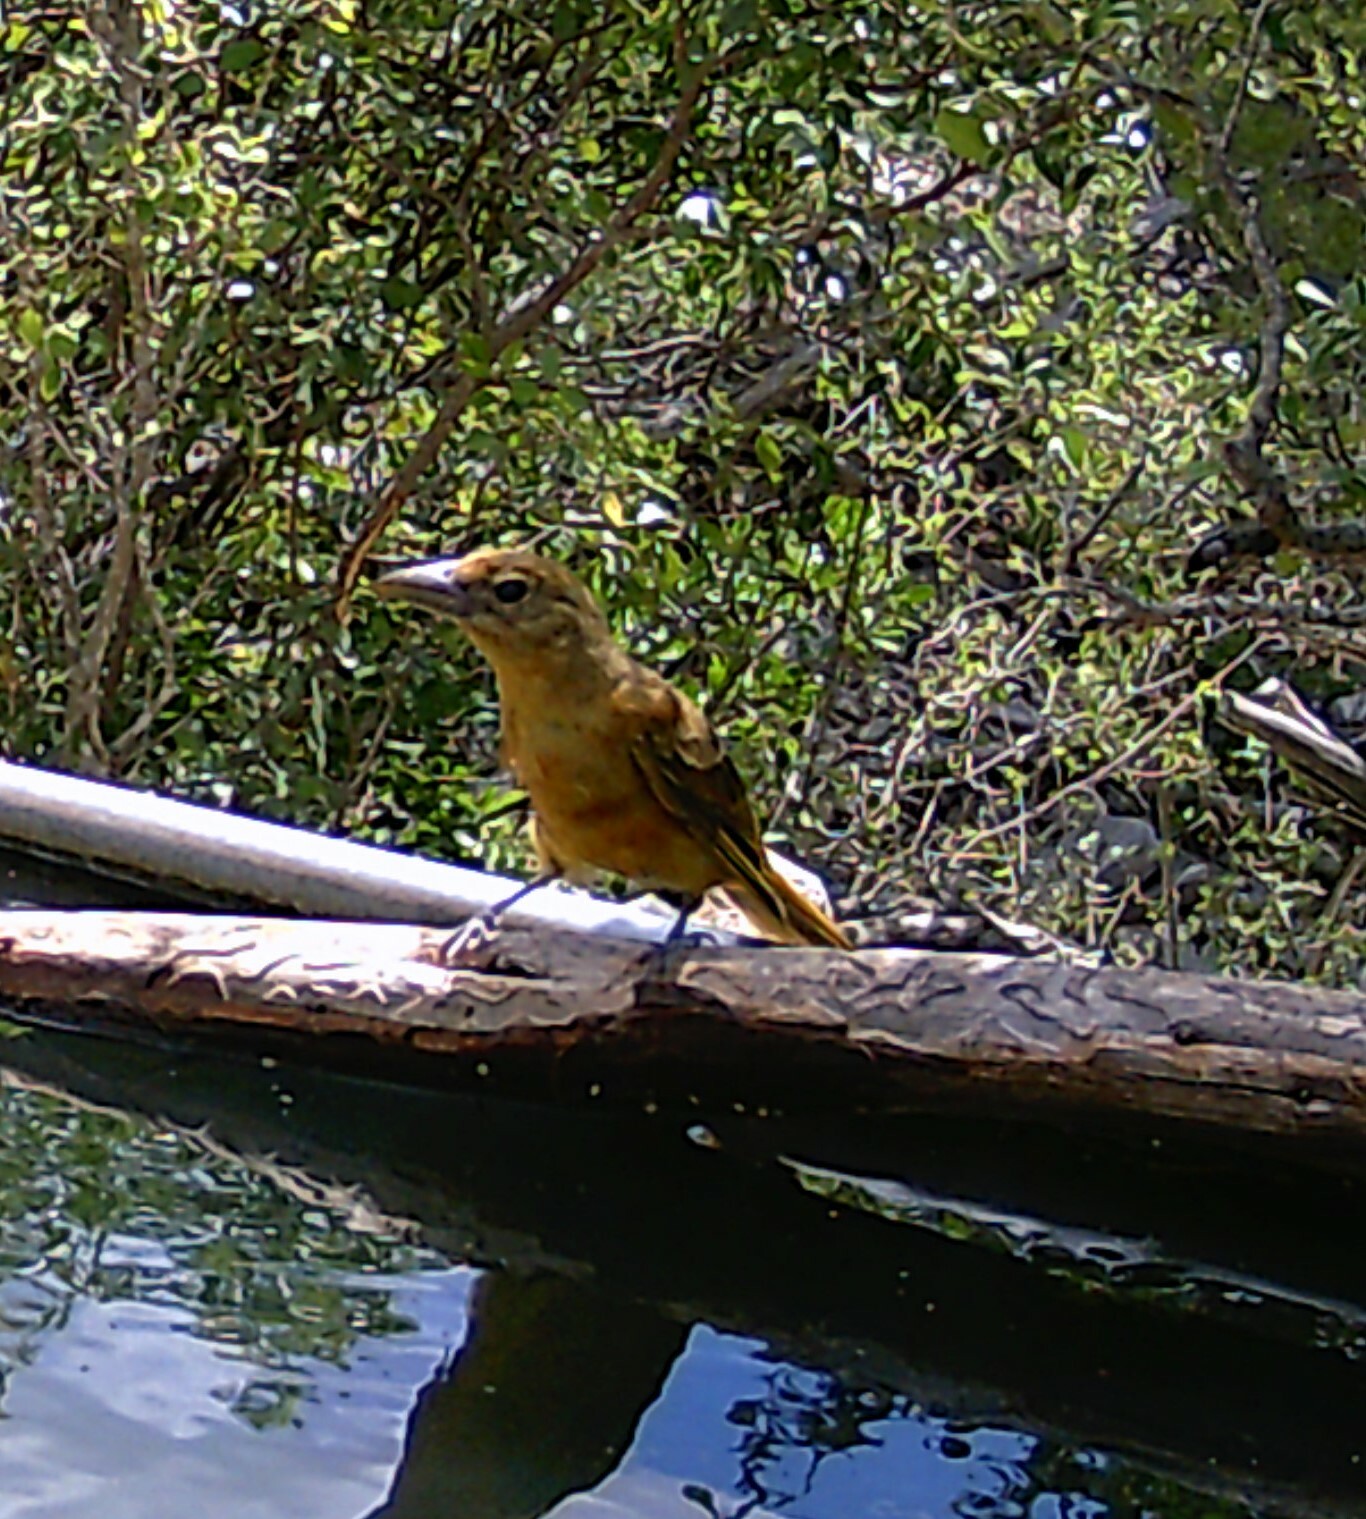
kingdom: Animalia
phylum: Chordata
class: Aves
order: Passeriformes
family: Cardinalidae
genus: Piranga
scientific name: Piranga rubra
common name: Summer tanager
